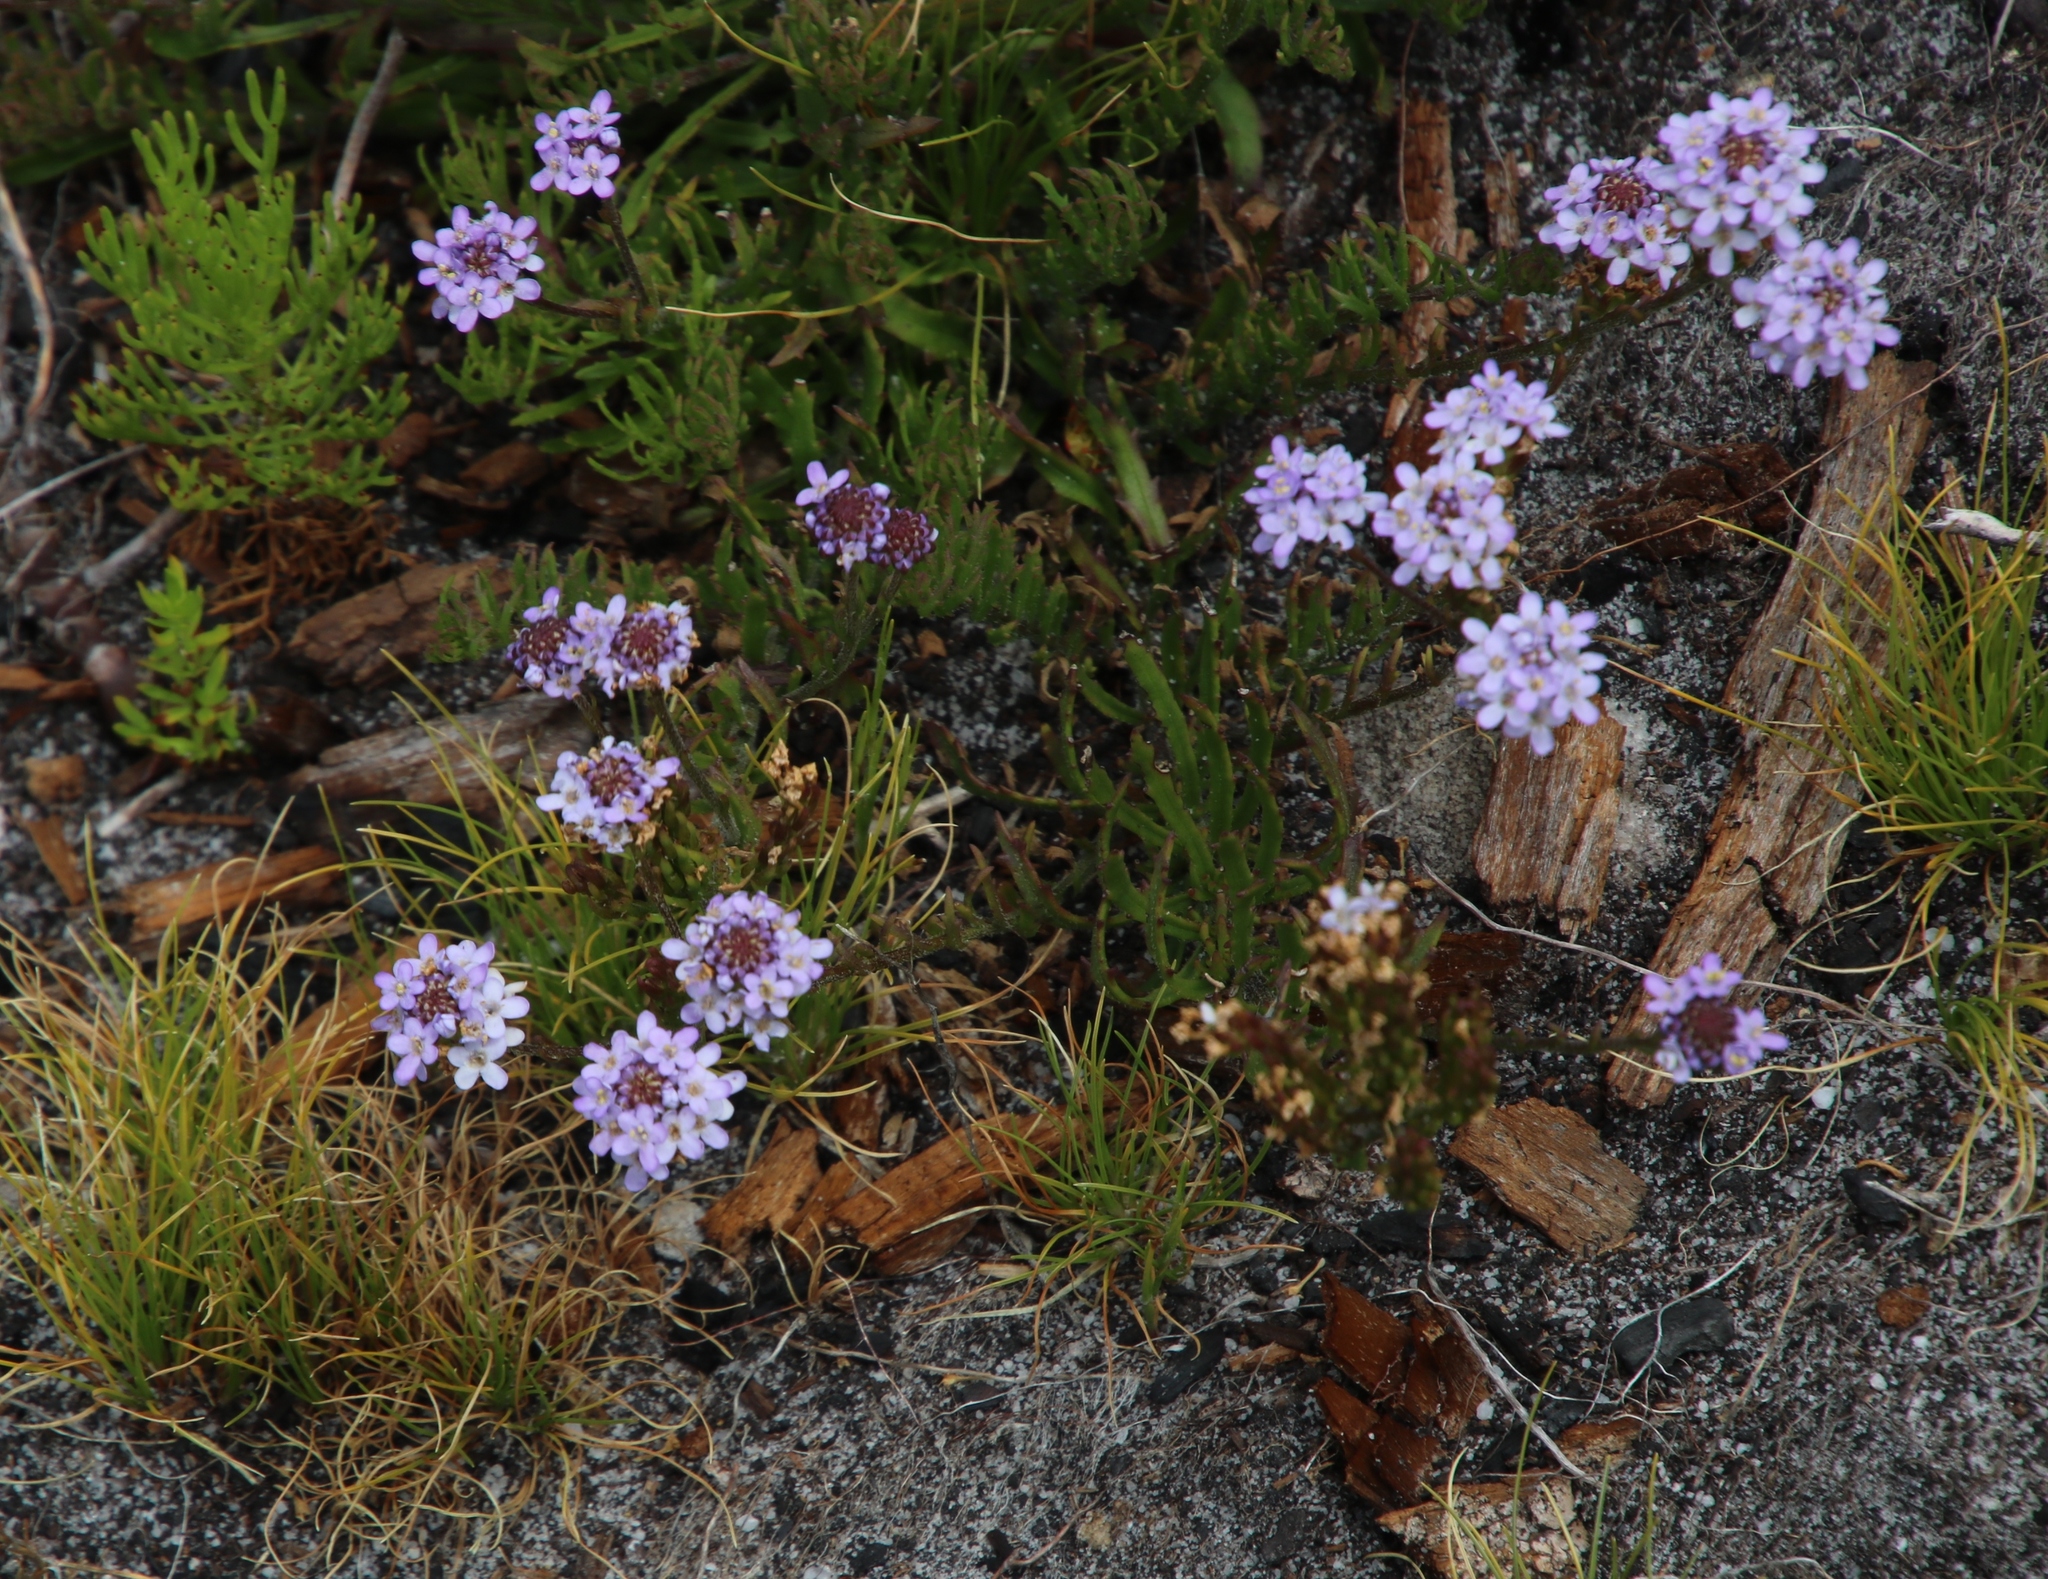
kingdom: Plantae
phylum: Tracheophyta
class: Magnoliopsida
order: Lamiales
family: Scrophulariaceae
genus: Pseudoselago
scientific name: Pseudoselago gracilis
